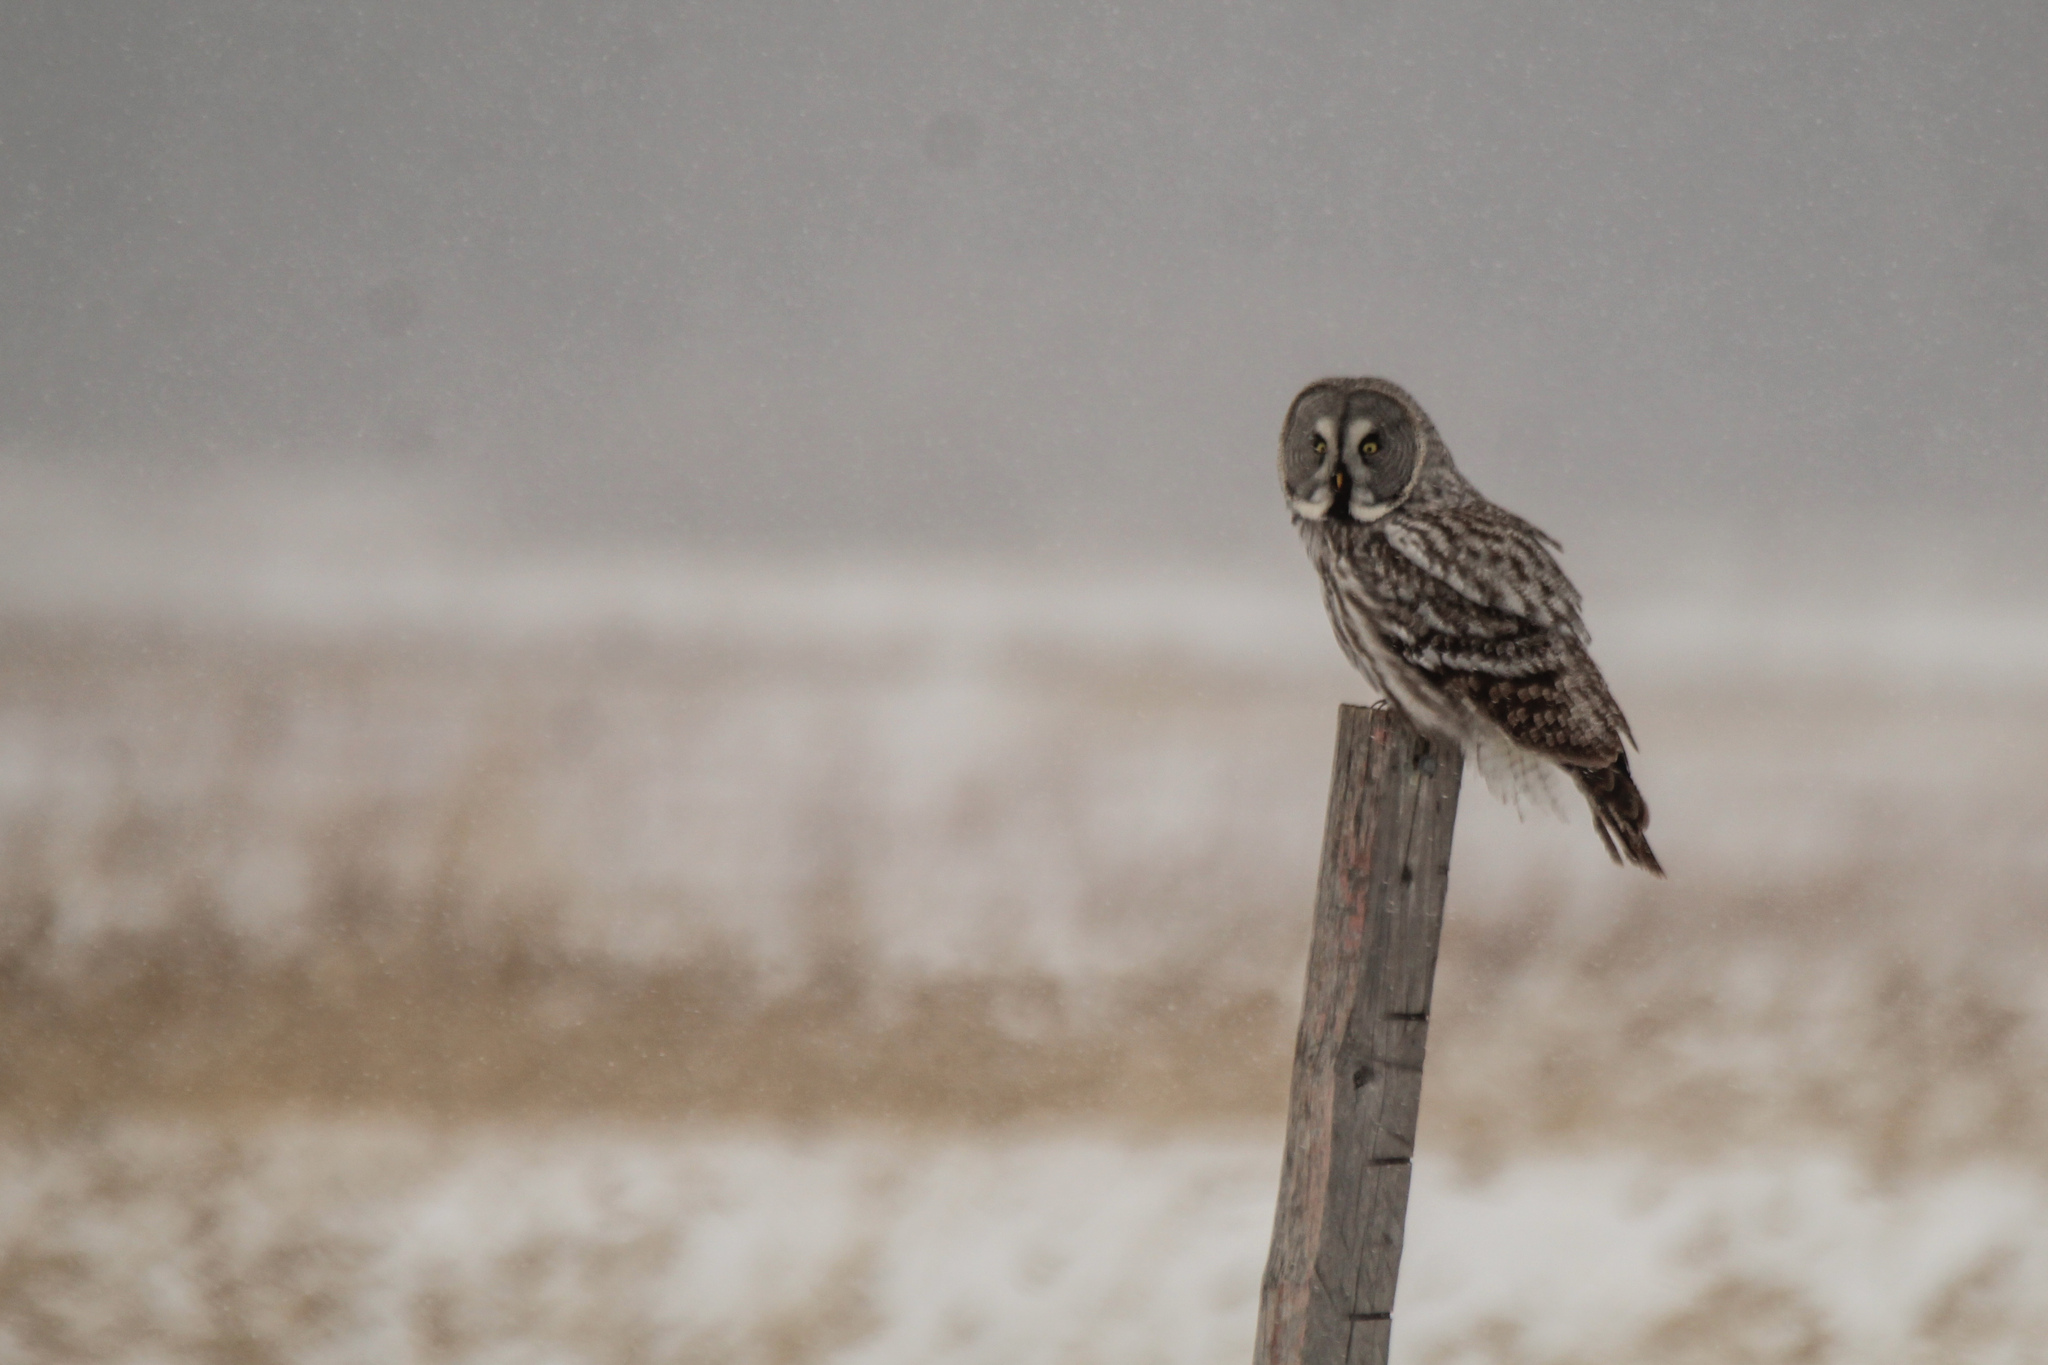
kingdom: Animalia
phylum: Chordata
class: Aves
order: Strigiformes
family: Strigidae
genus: Strix
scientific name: Strix nebulosa
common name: Great grey owl
